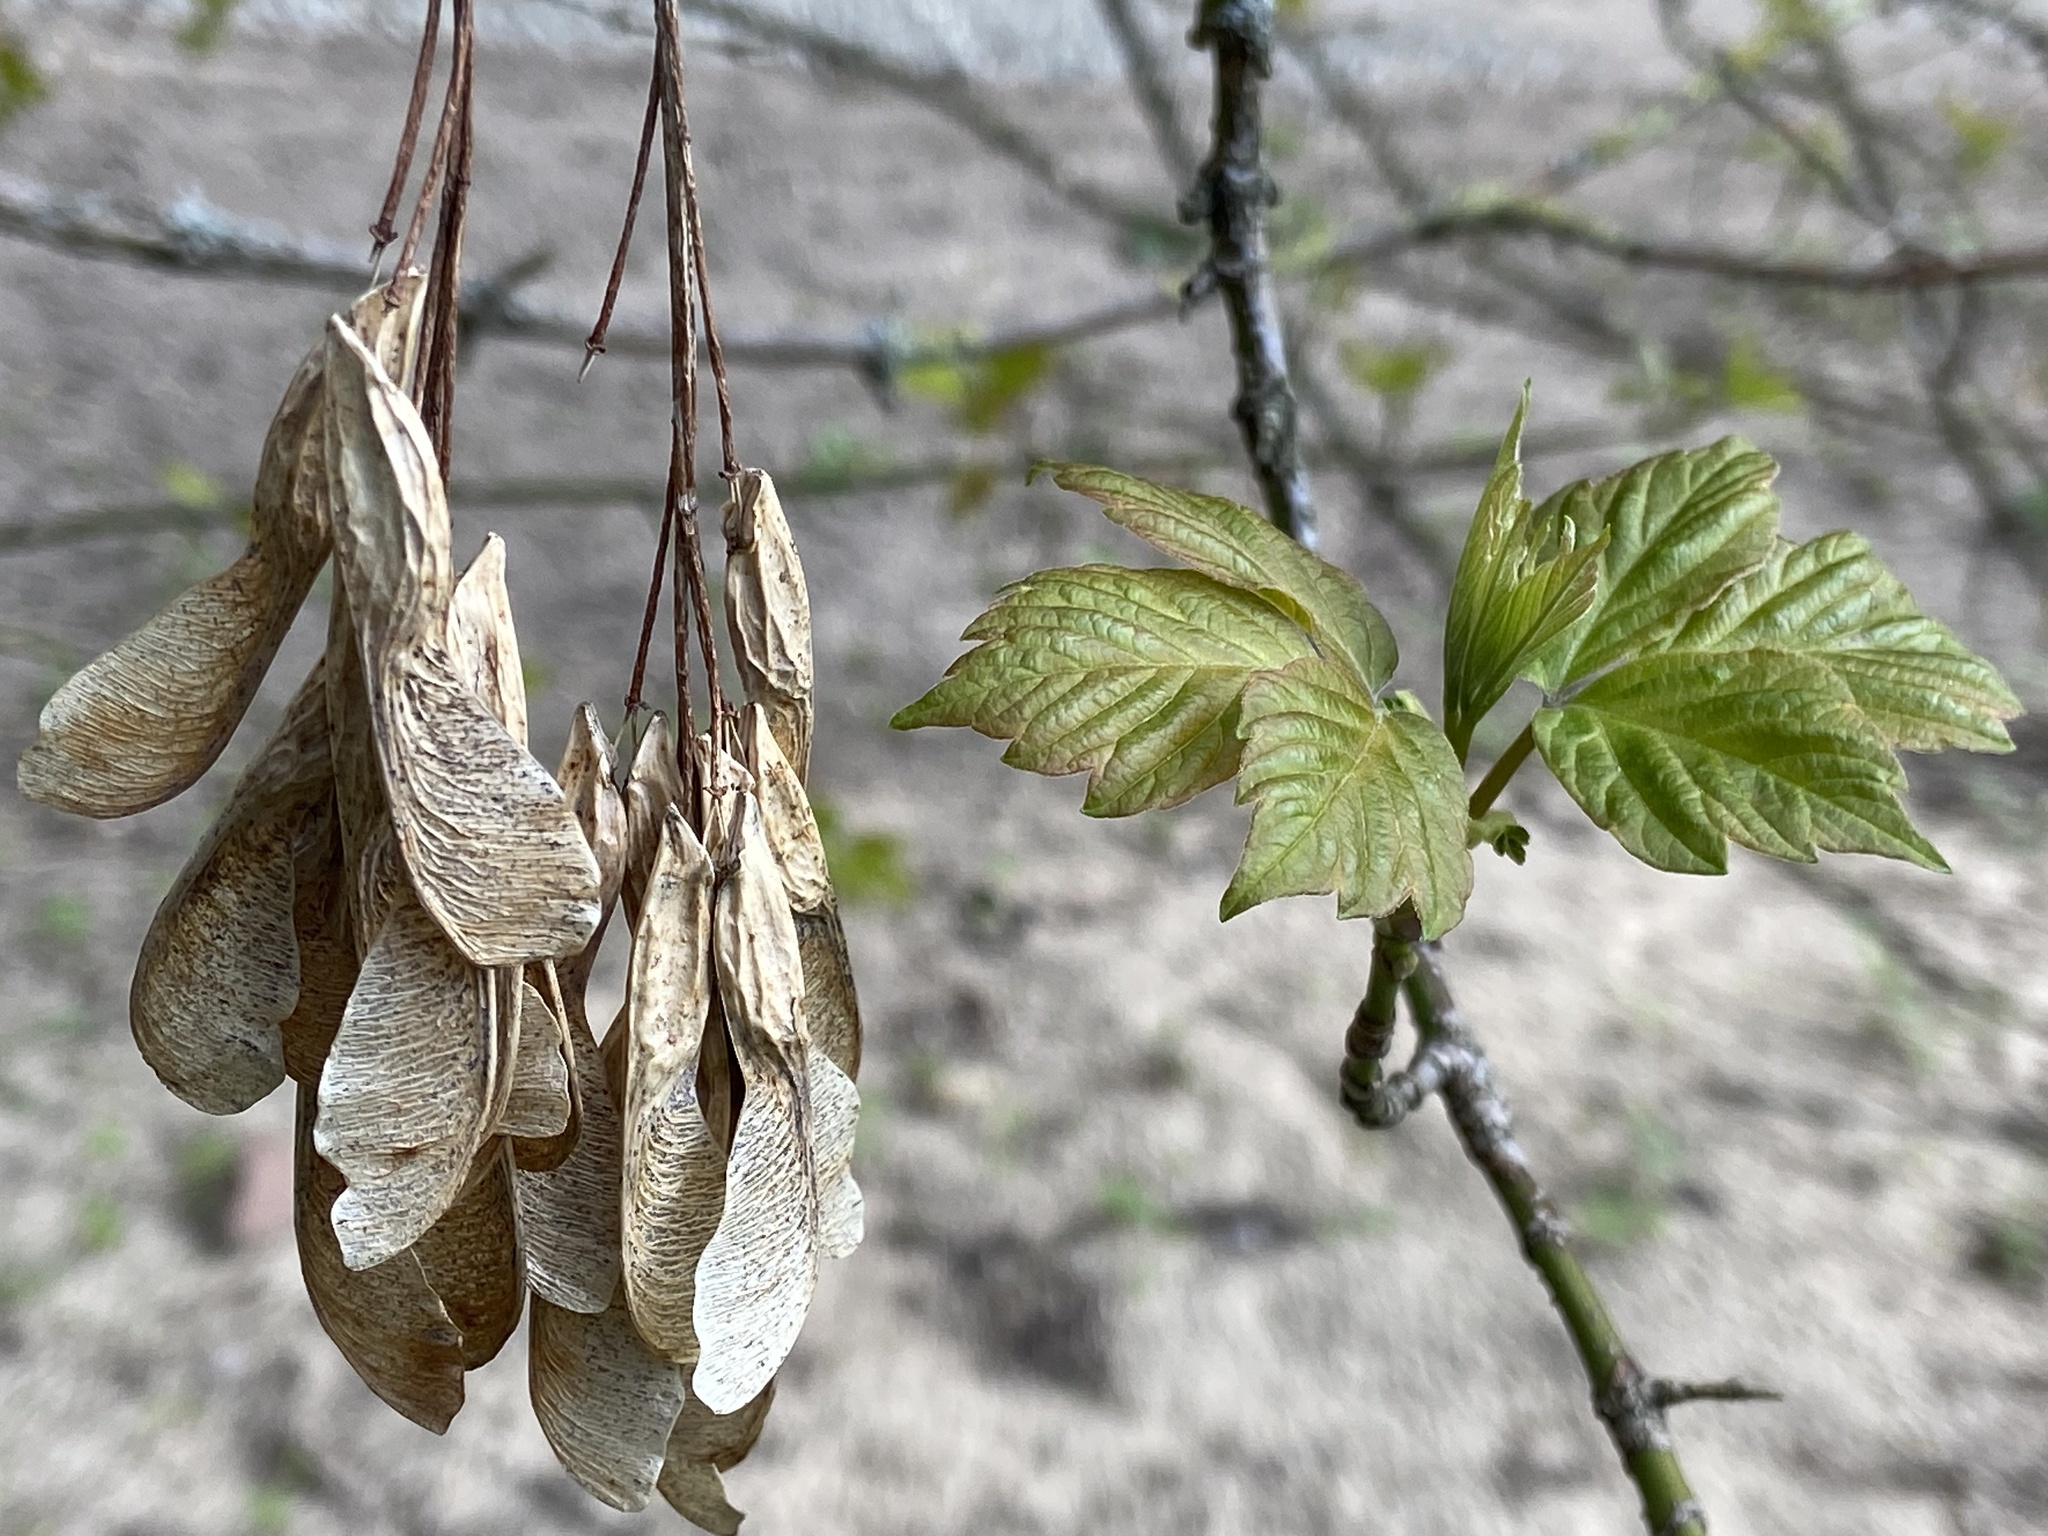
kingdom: Plantae
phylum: Tracheophyta
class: Magnoliopsida
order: Sapindales
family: Sapindaceae
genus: Acer
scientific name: Acer negundo
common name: Ashleaf maple
